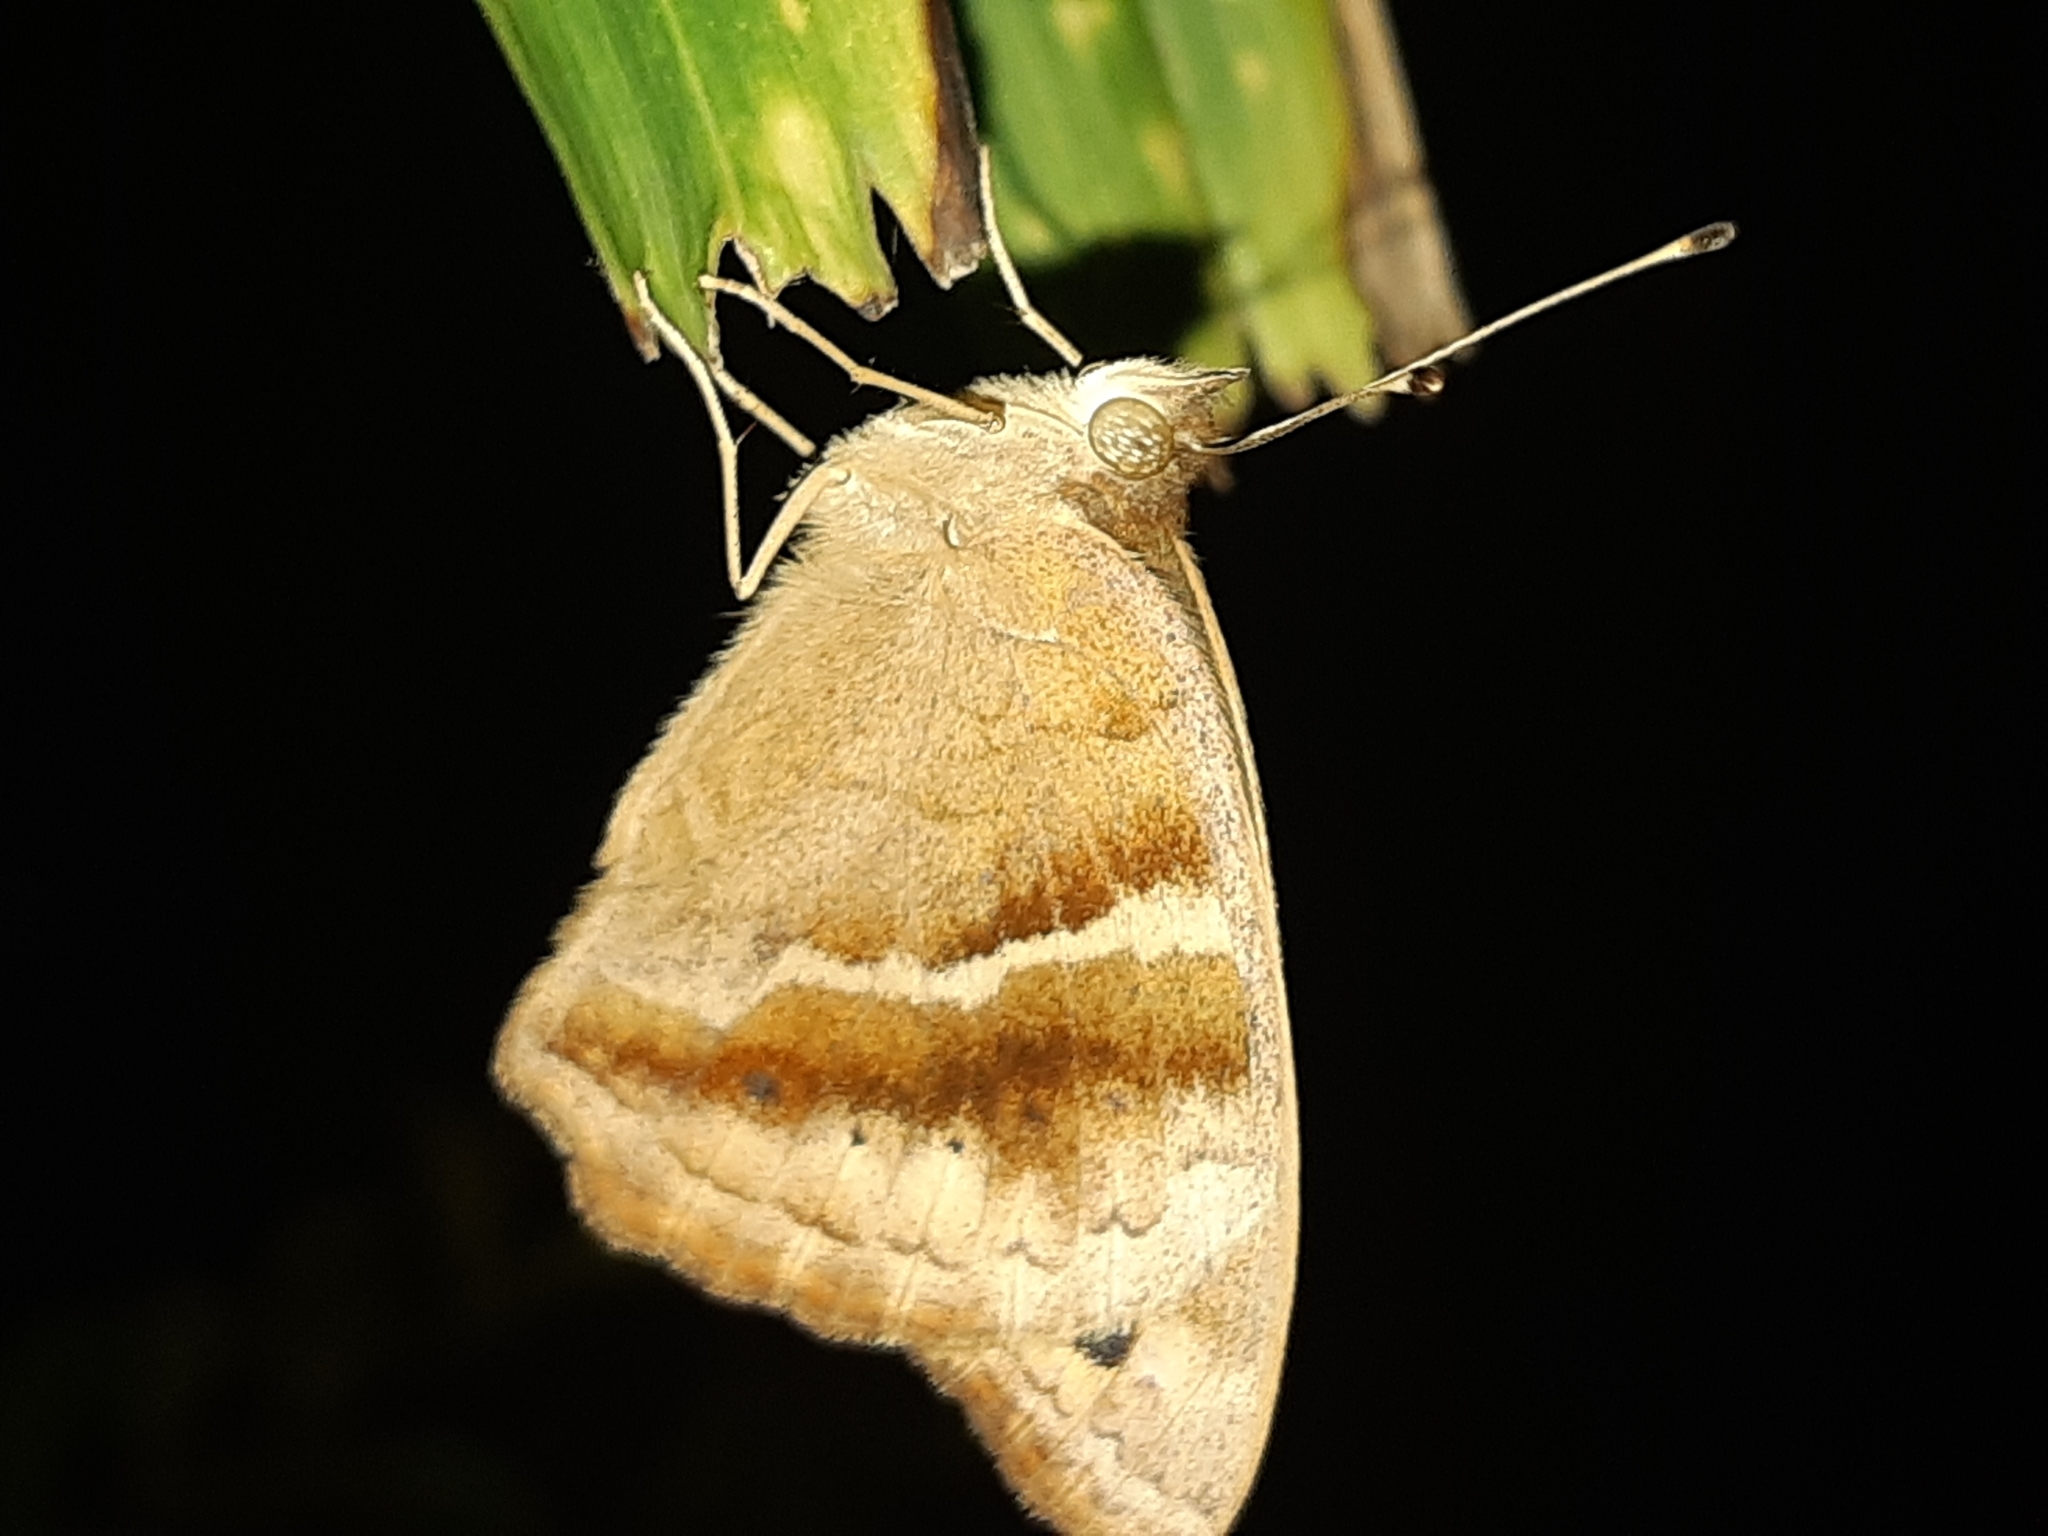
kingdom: Animalia
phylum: Arthropoda
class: Insecta
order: Lepidoptera
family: Nymphalidae
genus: Junonia
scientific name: Junonia lavinia
